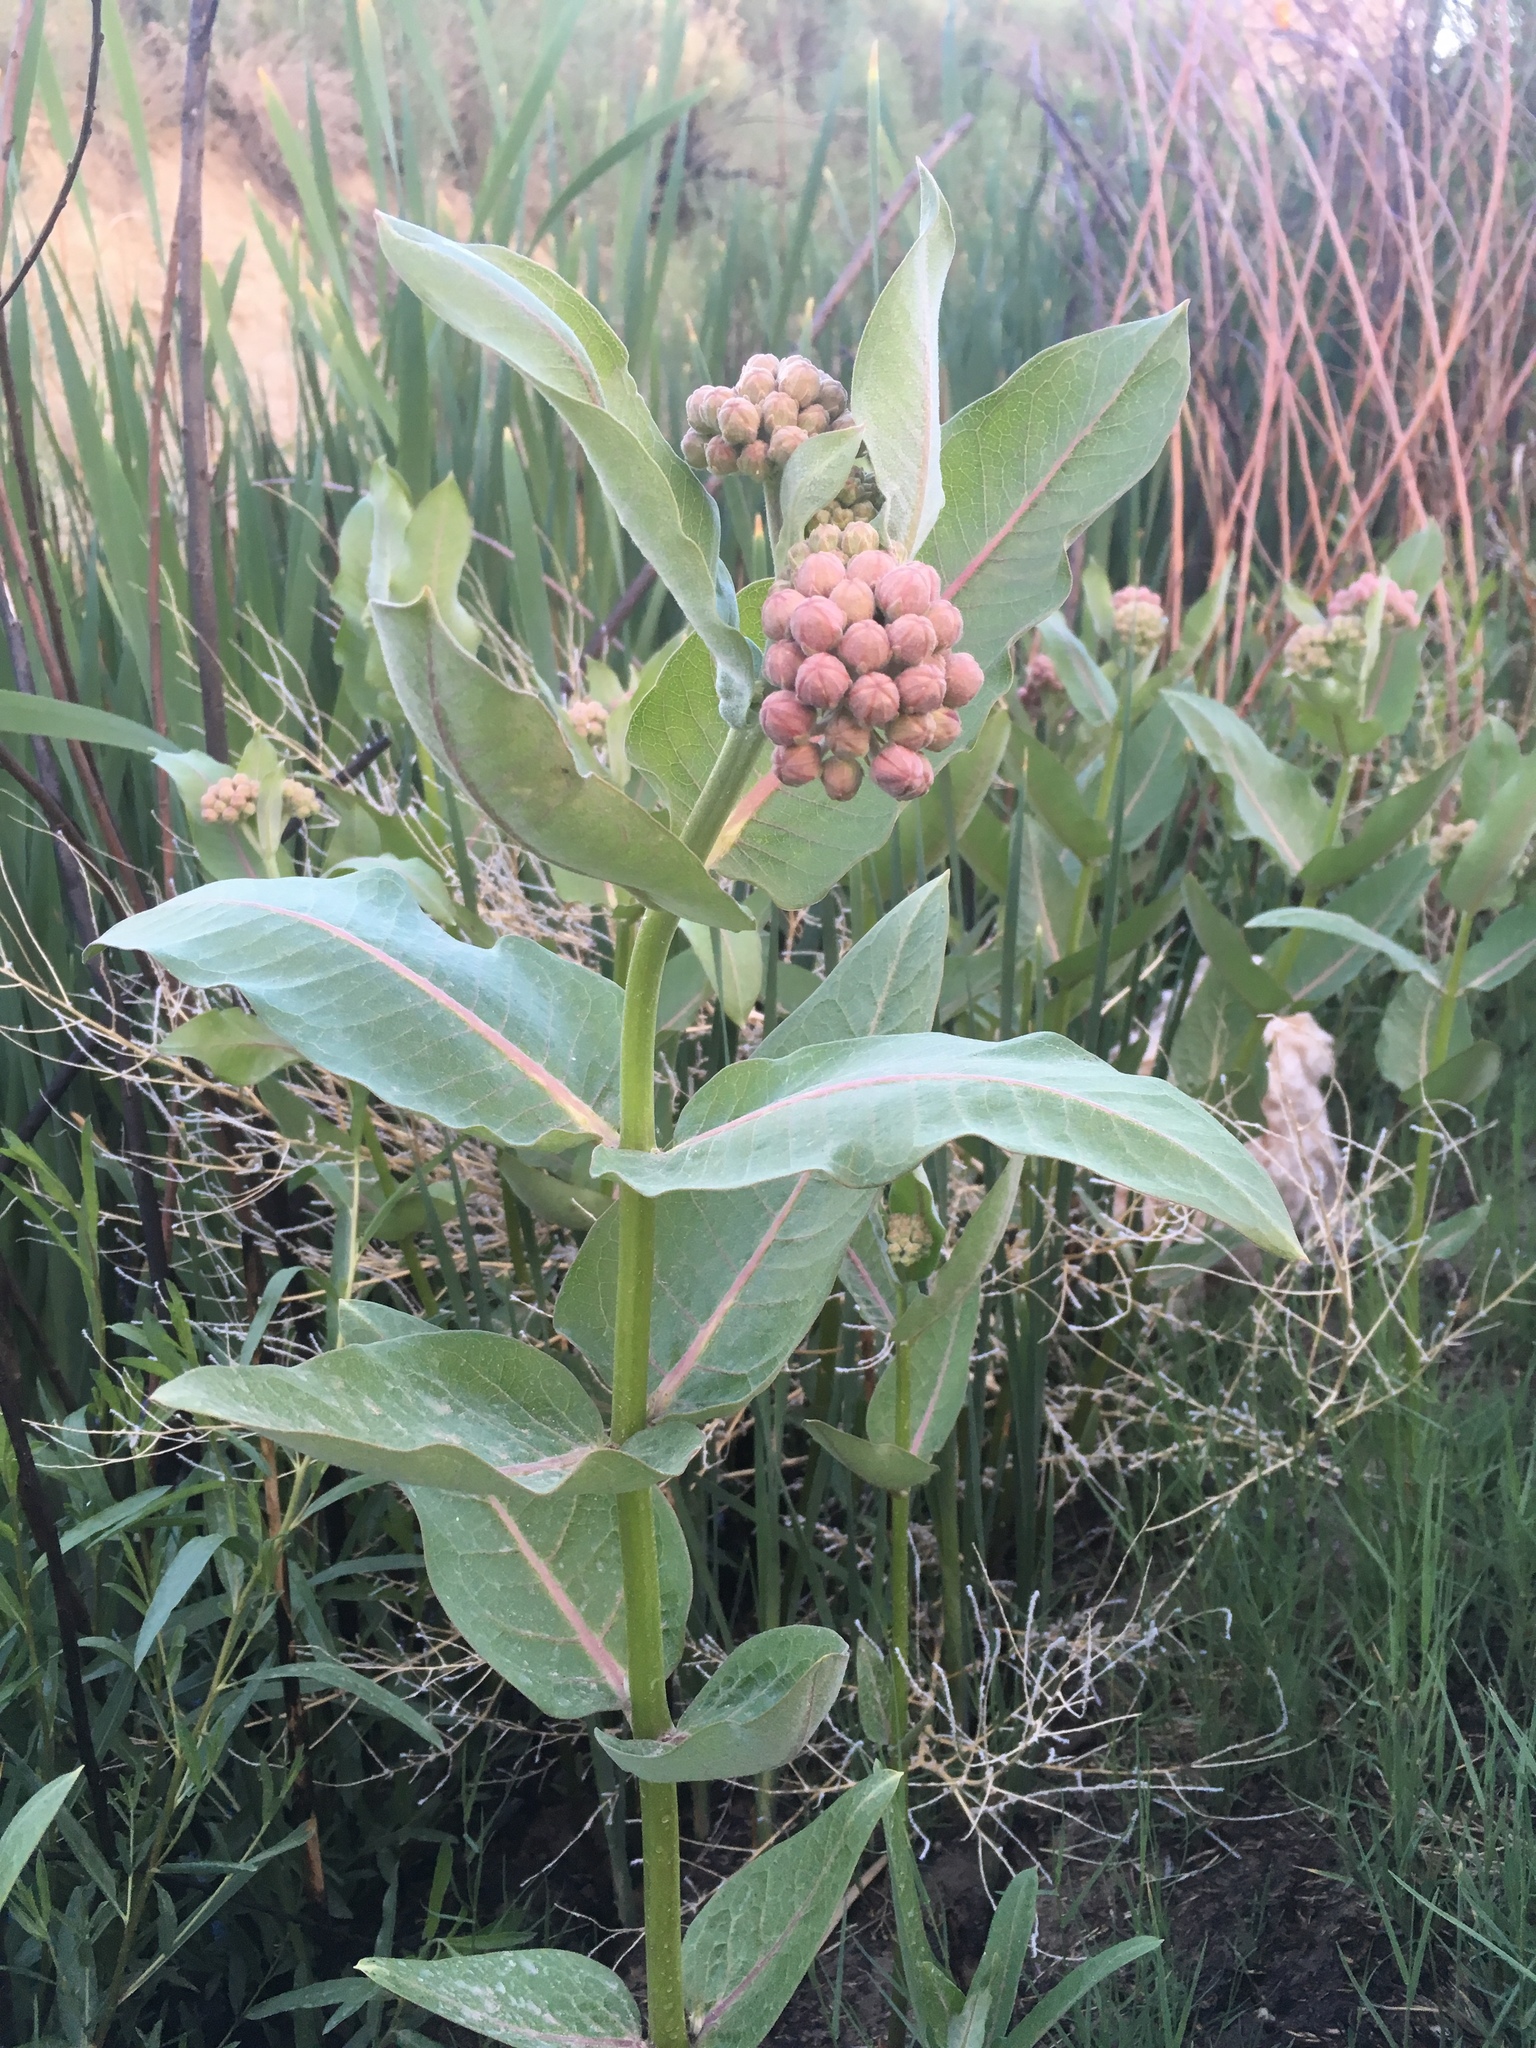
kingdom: Plantae
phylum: Tracheophyta
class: Magnoliopsida
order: Gentianales
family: Apocynaceae
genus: Asclepias
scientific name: Asclepias speciosa
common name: Showy milkweed
